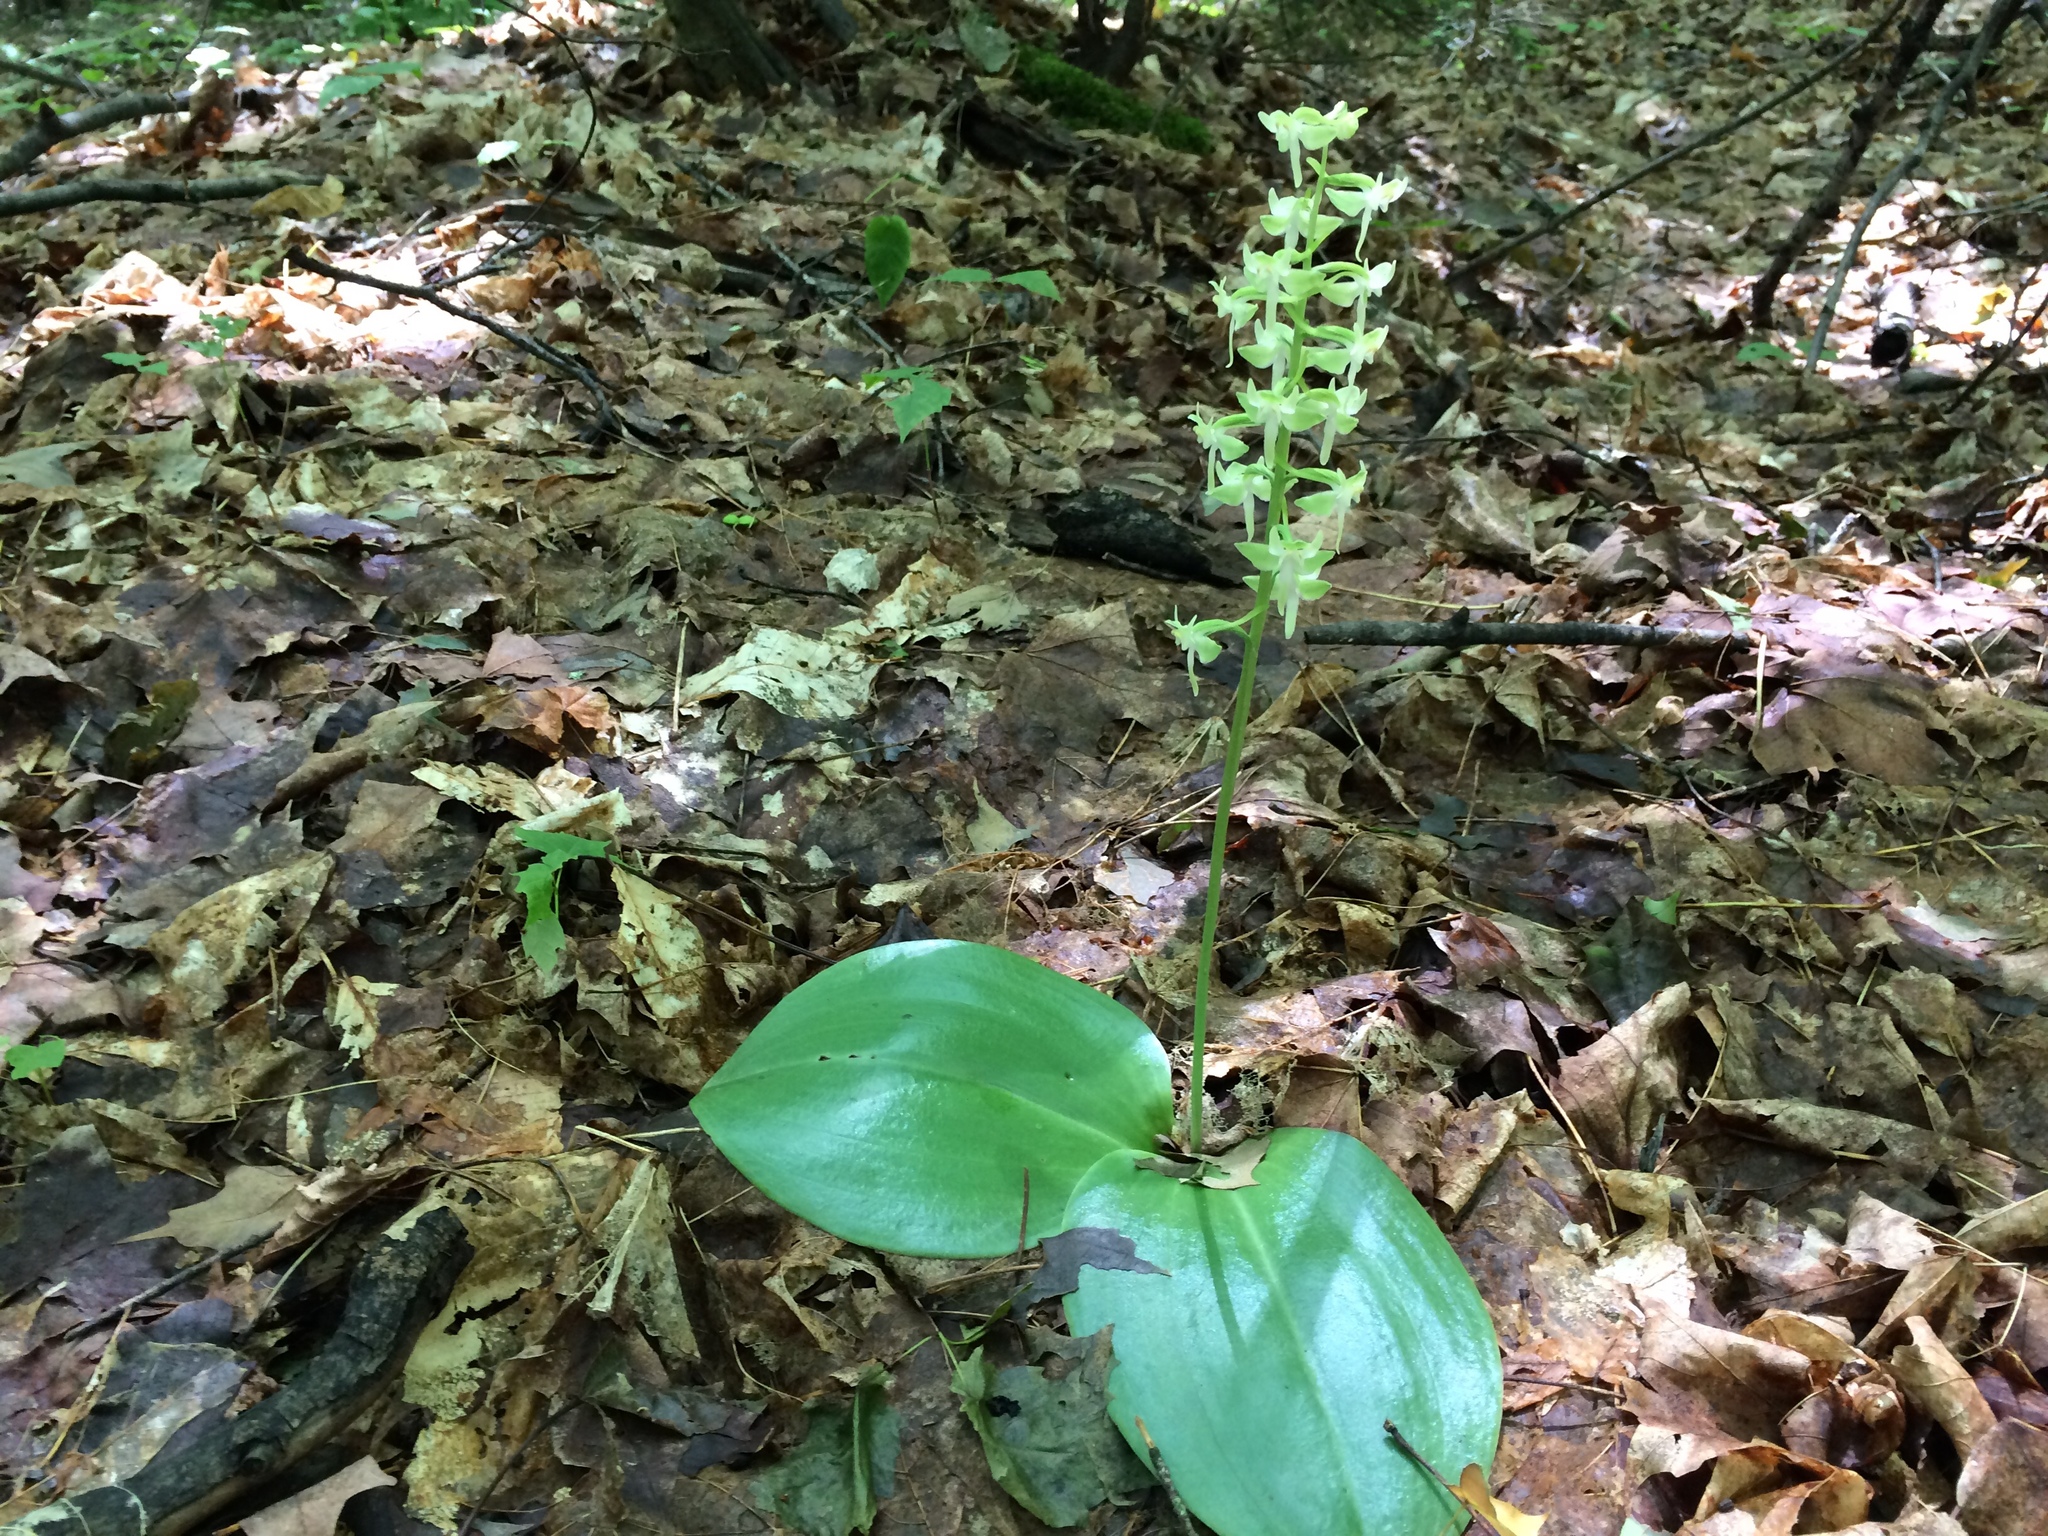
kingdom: Plantae
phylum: Tracheophyta
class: Liliopsida
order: Asparagales
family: Orchidaceae
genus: Platanthera
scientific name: Platanthera orbiculata
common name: Large round-leaved orchid
